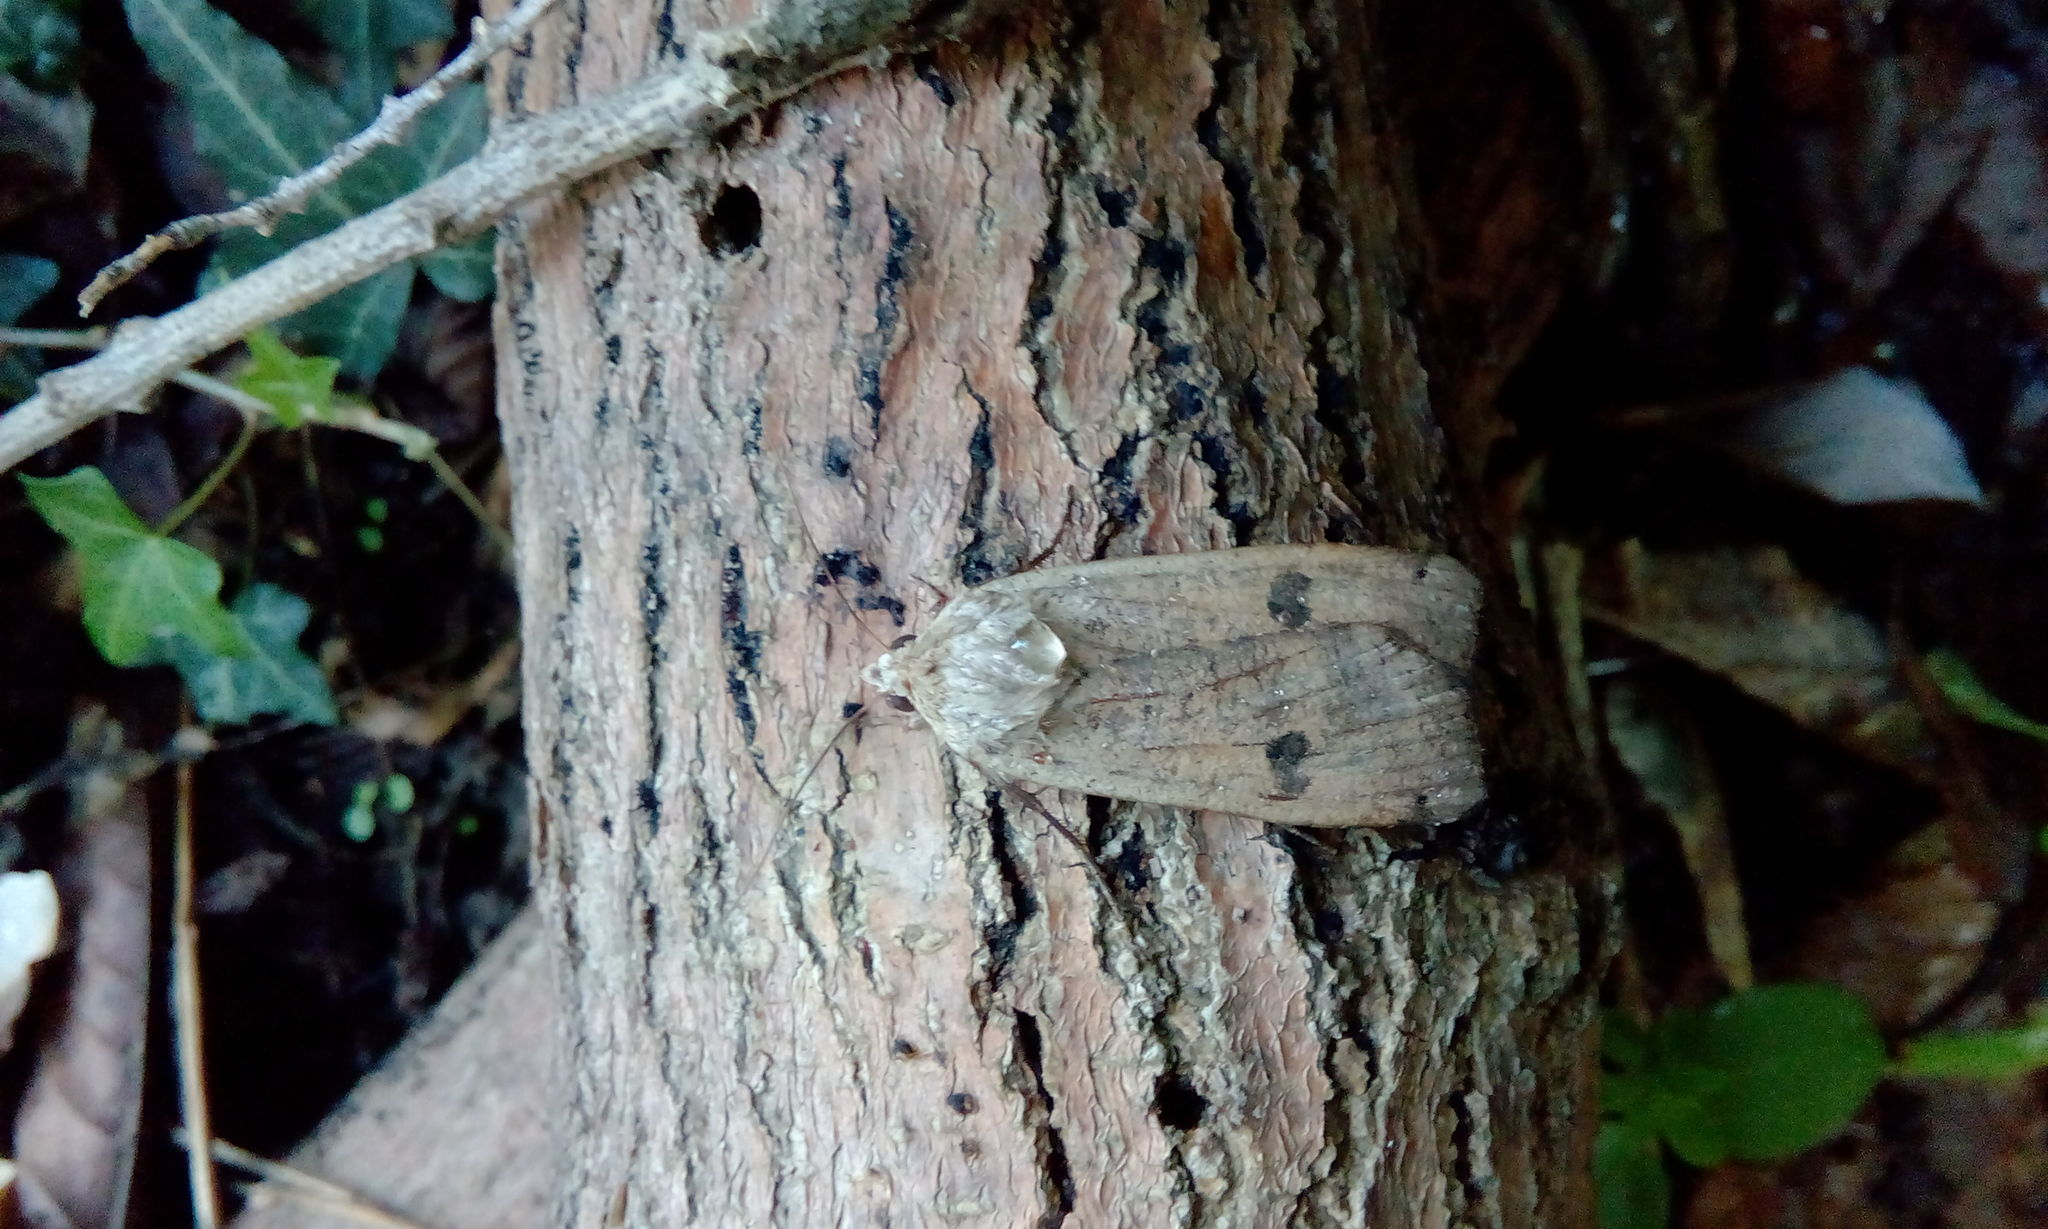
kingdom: Animalia
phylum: Arthropoda
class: Insecta
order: Lepidoptera
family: Noctuidae
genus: Noctua
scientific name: Noctua pronuba
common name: Large yellow underwing
